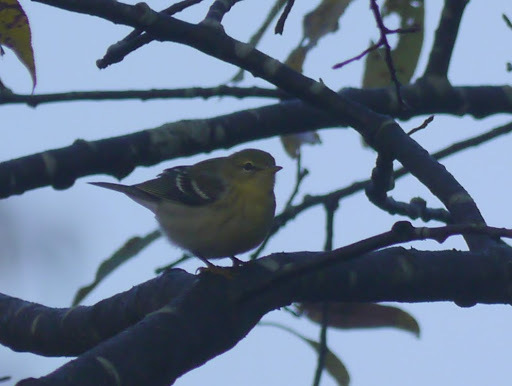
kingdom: Animalia
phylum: Chordata
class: Aves
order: Passeriformes
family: Parulidae
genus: Setophaga
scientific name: Setophaga pinus
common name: Pine warbler
